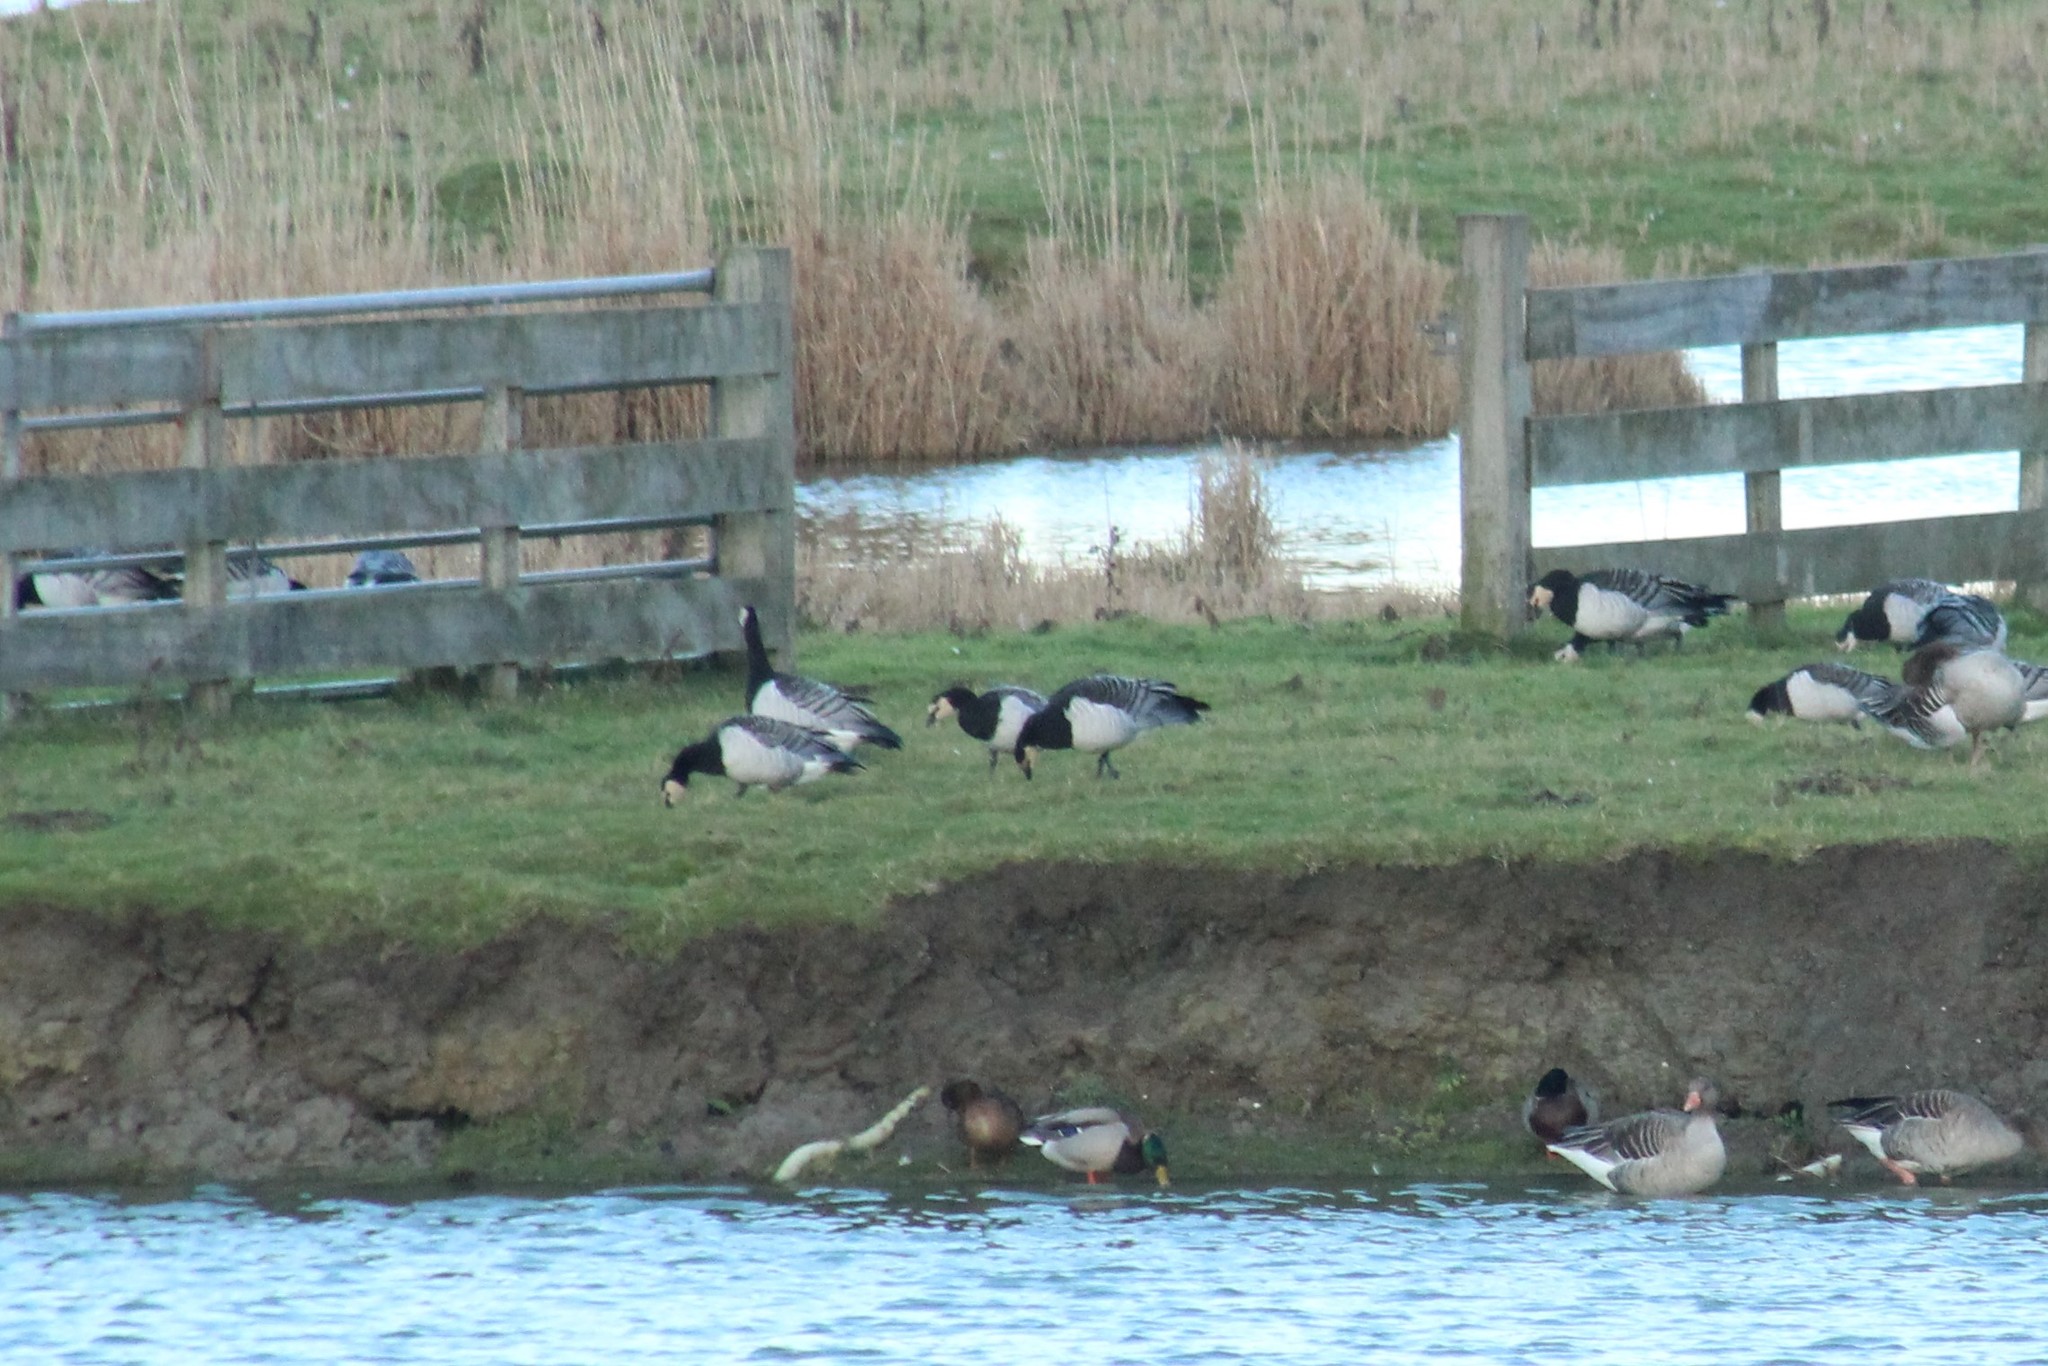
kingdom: Animalia
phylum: Chordata
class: Aves
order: Anseriformes
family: Anatidae
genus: Branta
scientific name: Branta leucopsis
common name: Barnacle goose
